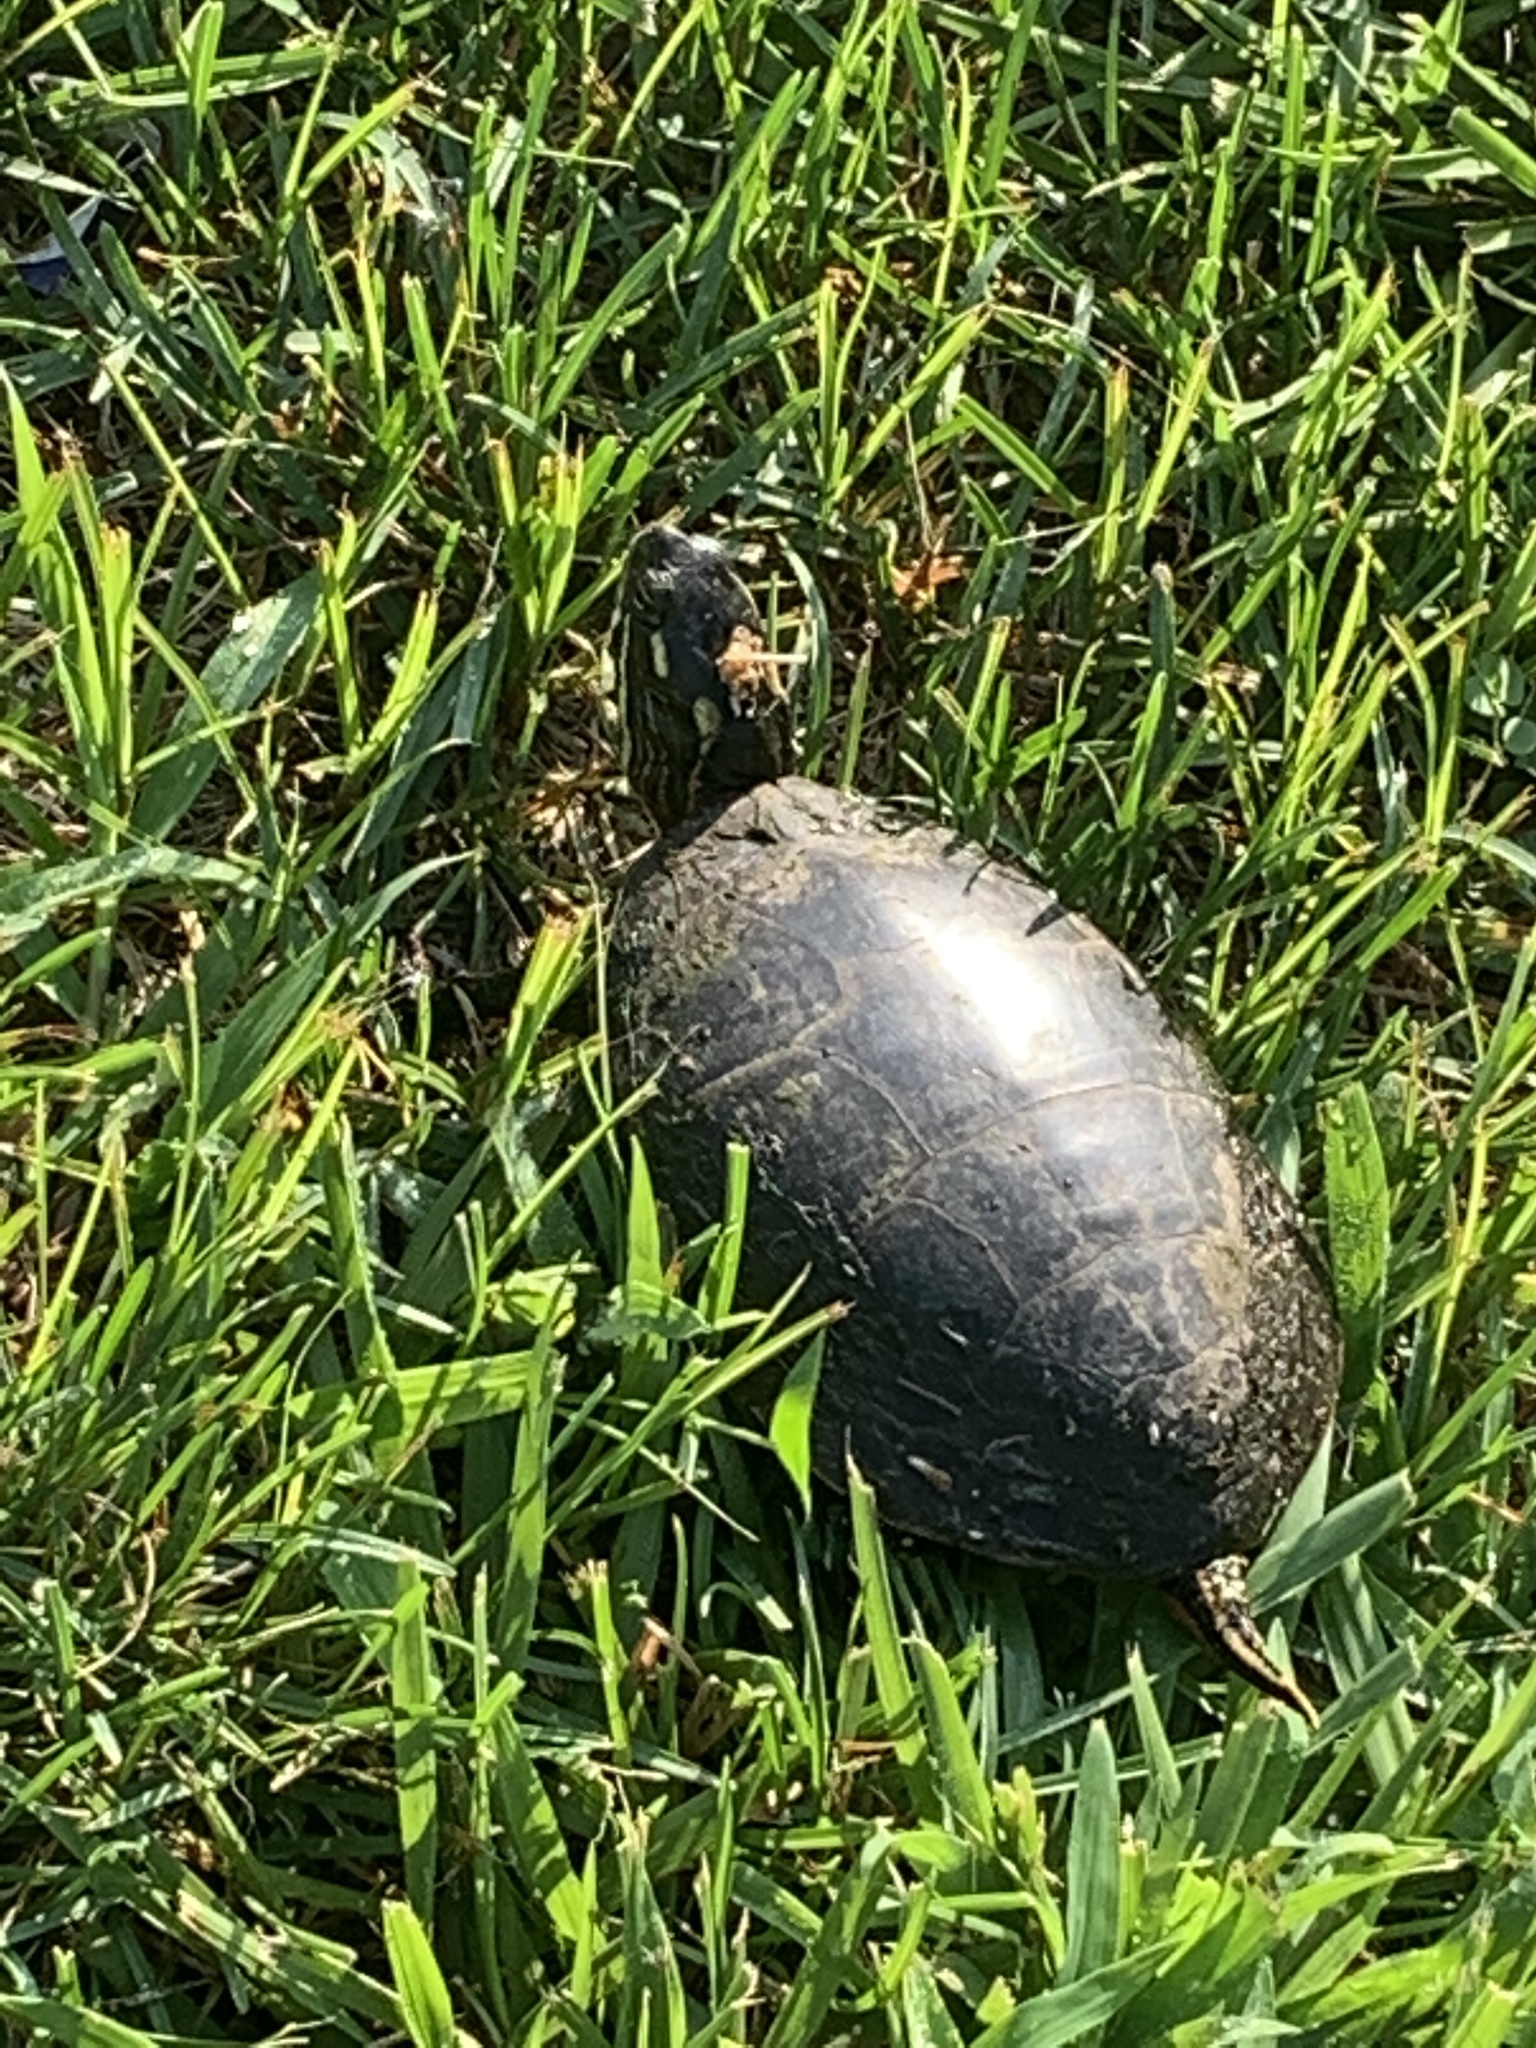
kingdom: Animalia
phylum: Chordata
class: Testudines
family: Emydidae
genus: Chrysemys
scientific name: Chrysemys picta
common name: Painted turtle
